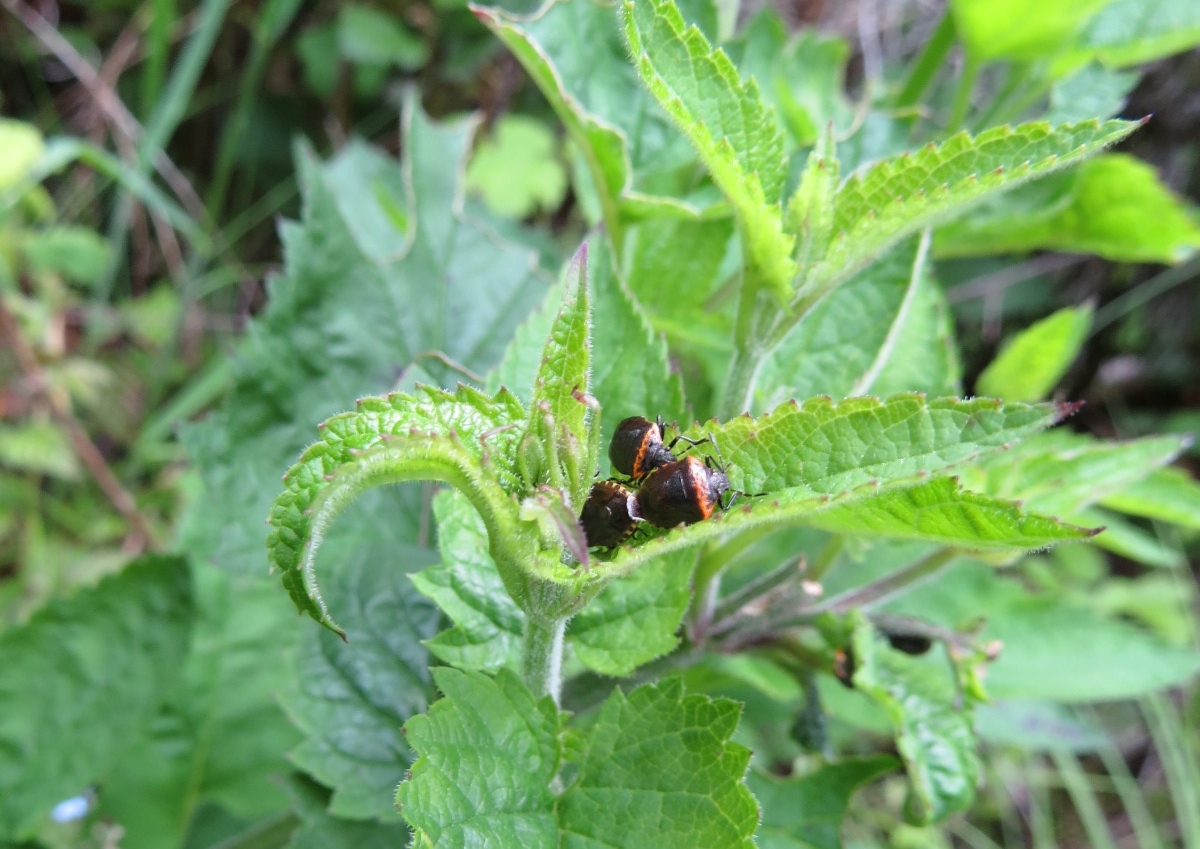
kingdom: Animalia
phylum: Arthropoda
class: Insecta
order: Hemiptera
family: Pentatomidae
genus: Cosmopepla
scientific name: Cosmopepla uhleri
